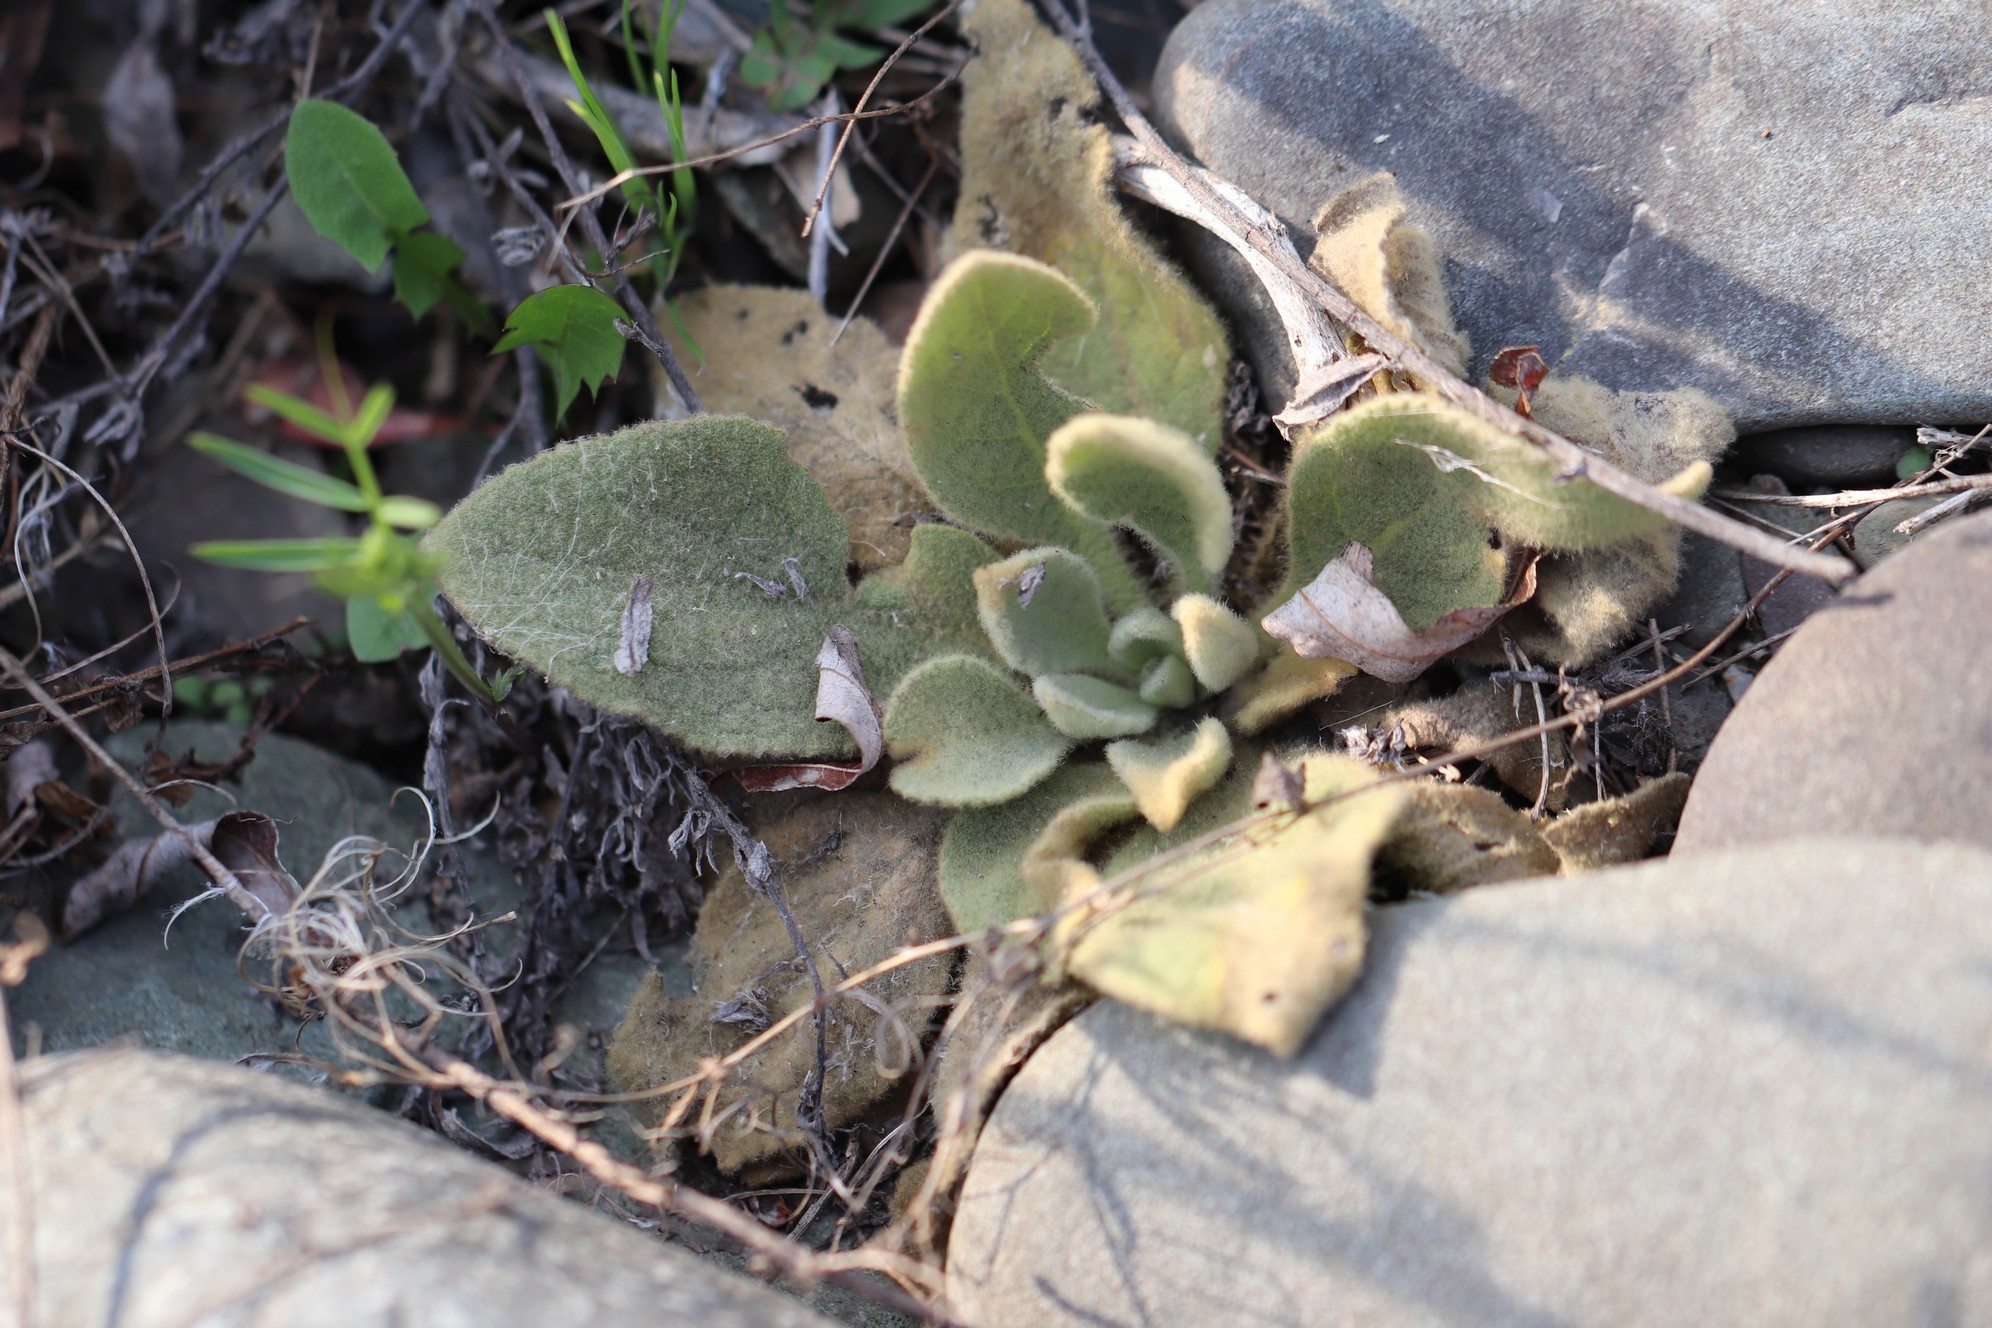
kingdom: Plantae
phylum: Tracheophyta
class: Magnoliopsida
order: Lamiales
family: Scrophulariaceae
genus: Verbascum
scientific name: Verbascum thapsus
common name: Common mullein
